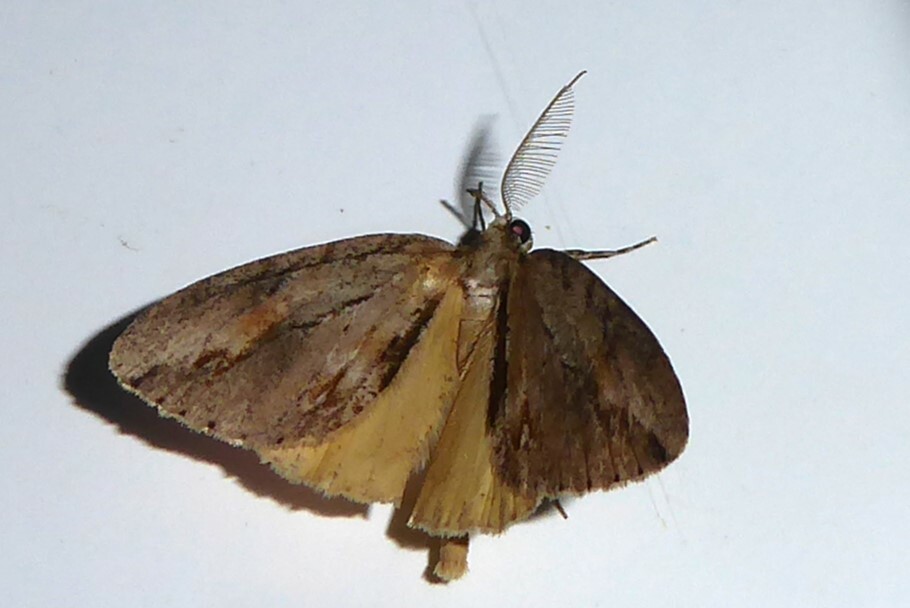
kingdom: Animalia
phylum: Arthropoda
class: Insecta
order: Lepidoptera
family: Geometridae
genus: Pseudocoremia
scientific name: Pseudocoremia lupinata
